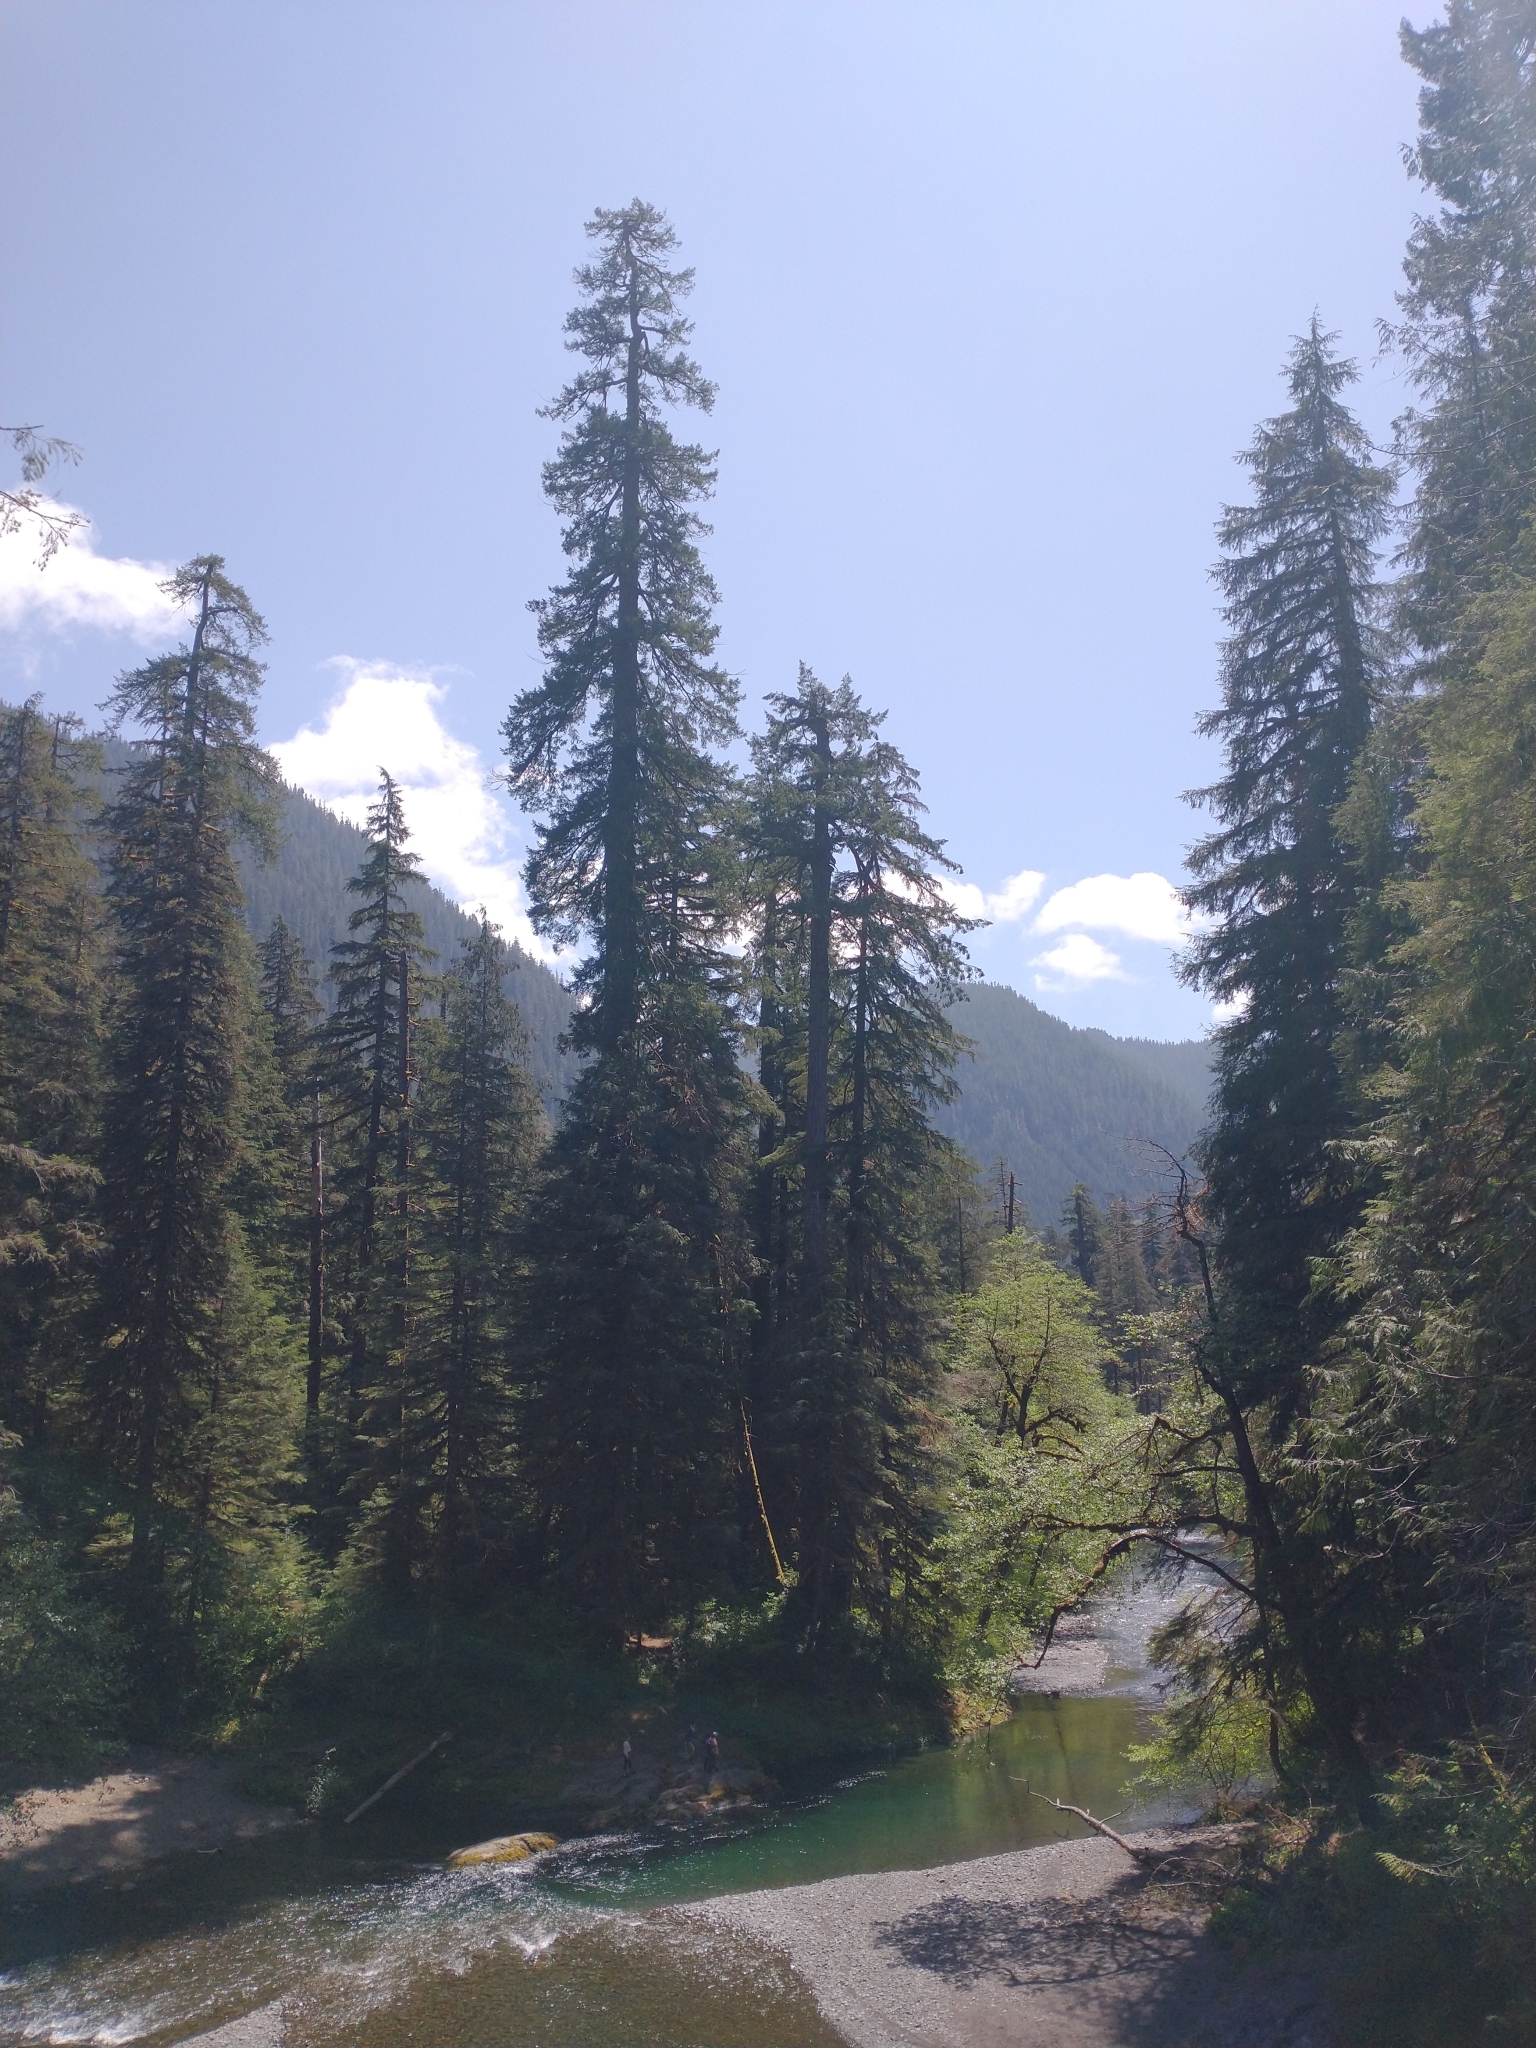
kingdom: Plantae
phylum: Tracheophyta
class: Pinopsida
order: Pinales
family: Pinaceae
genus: Pseudotsuga
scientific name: Pseudotsuga menziesii
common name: Douglas fir
